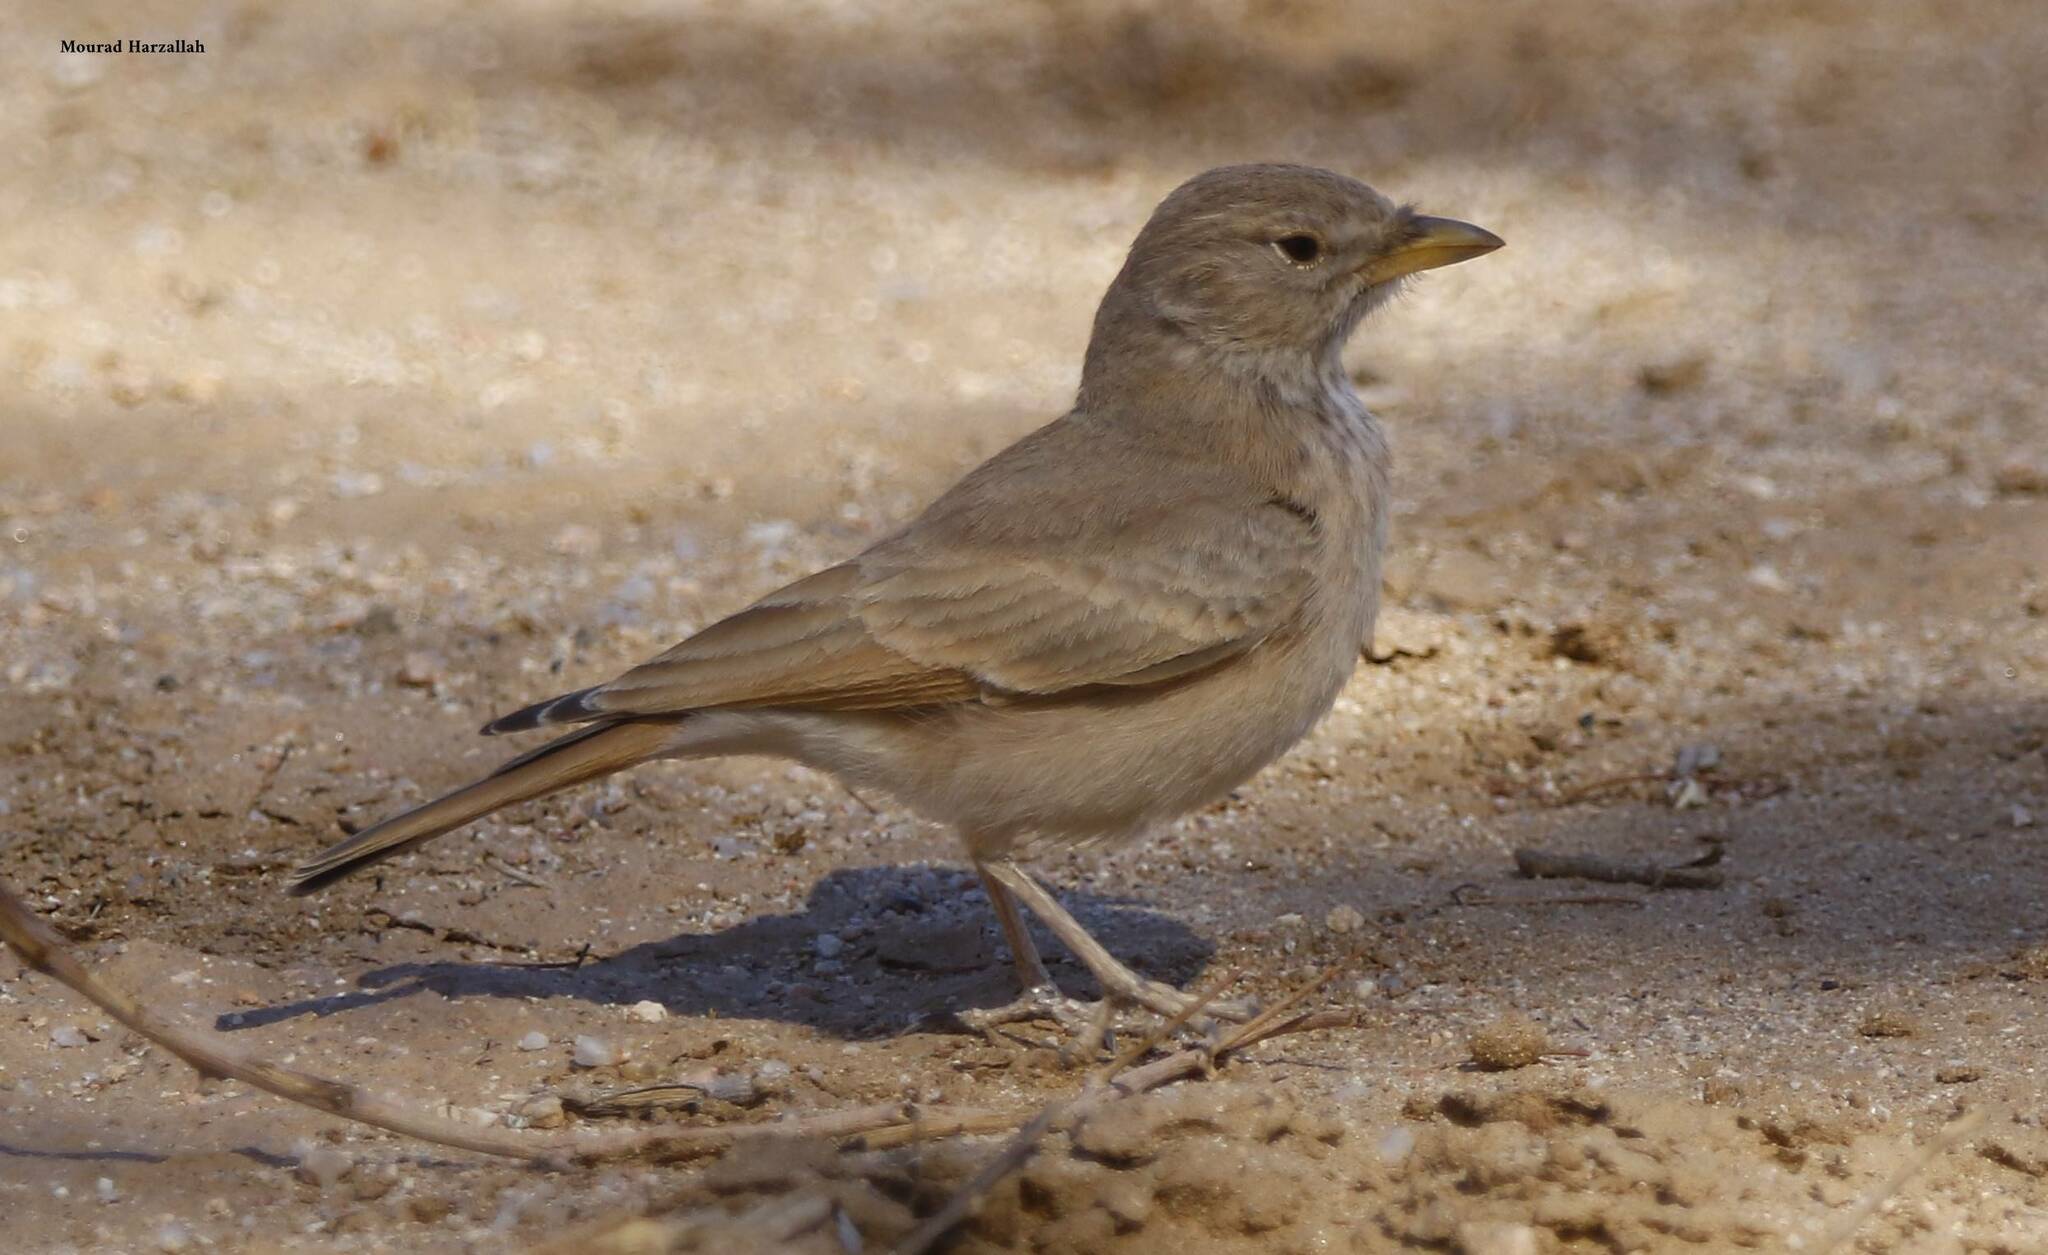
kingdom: Animalia
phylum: Chordata
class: Aves
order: Passeriformes
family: Alaudidae
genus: Ammomanes
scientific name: Ammomanes deserti
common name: Desert lark
